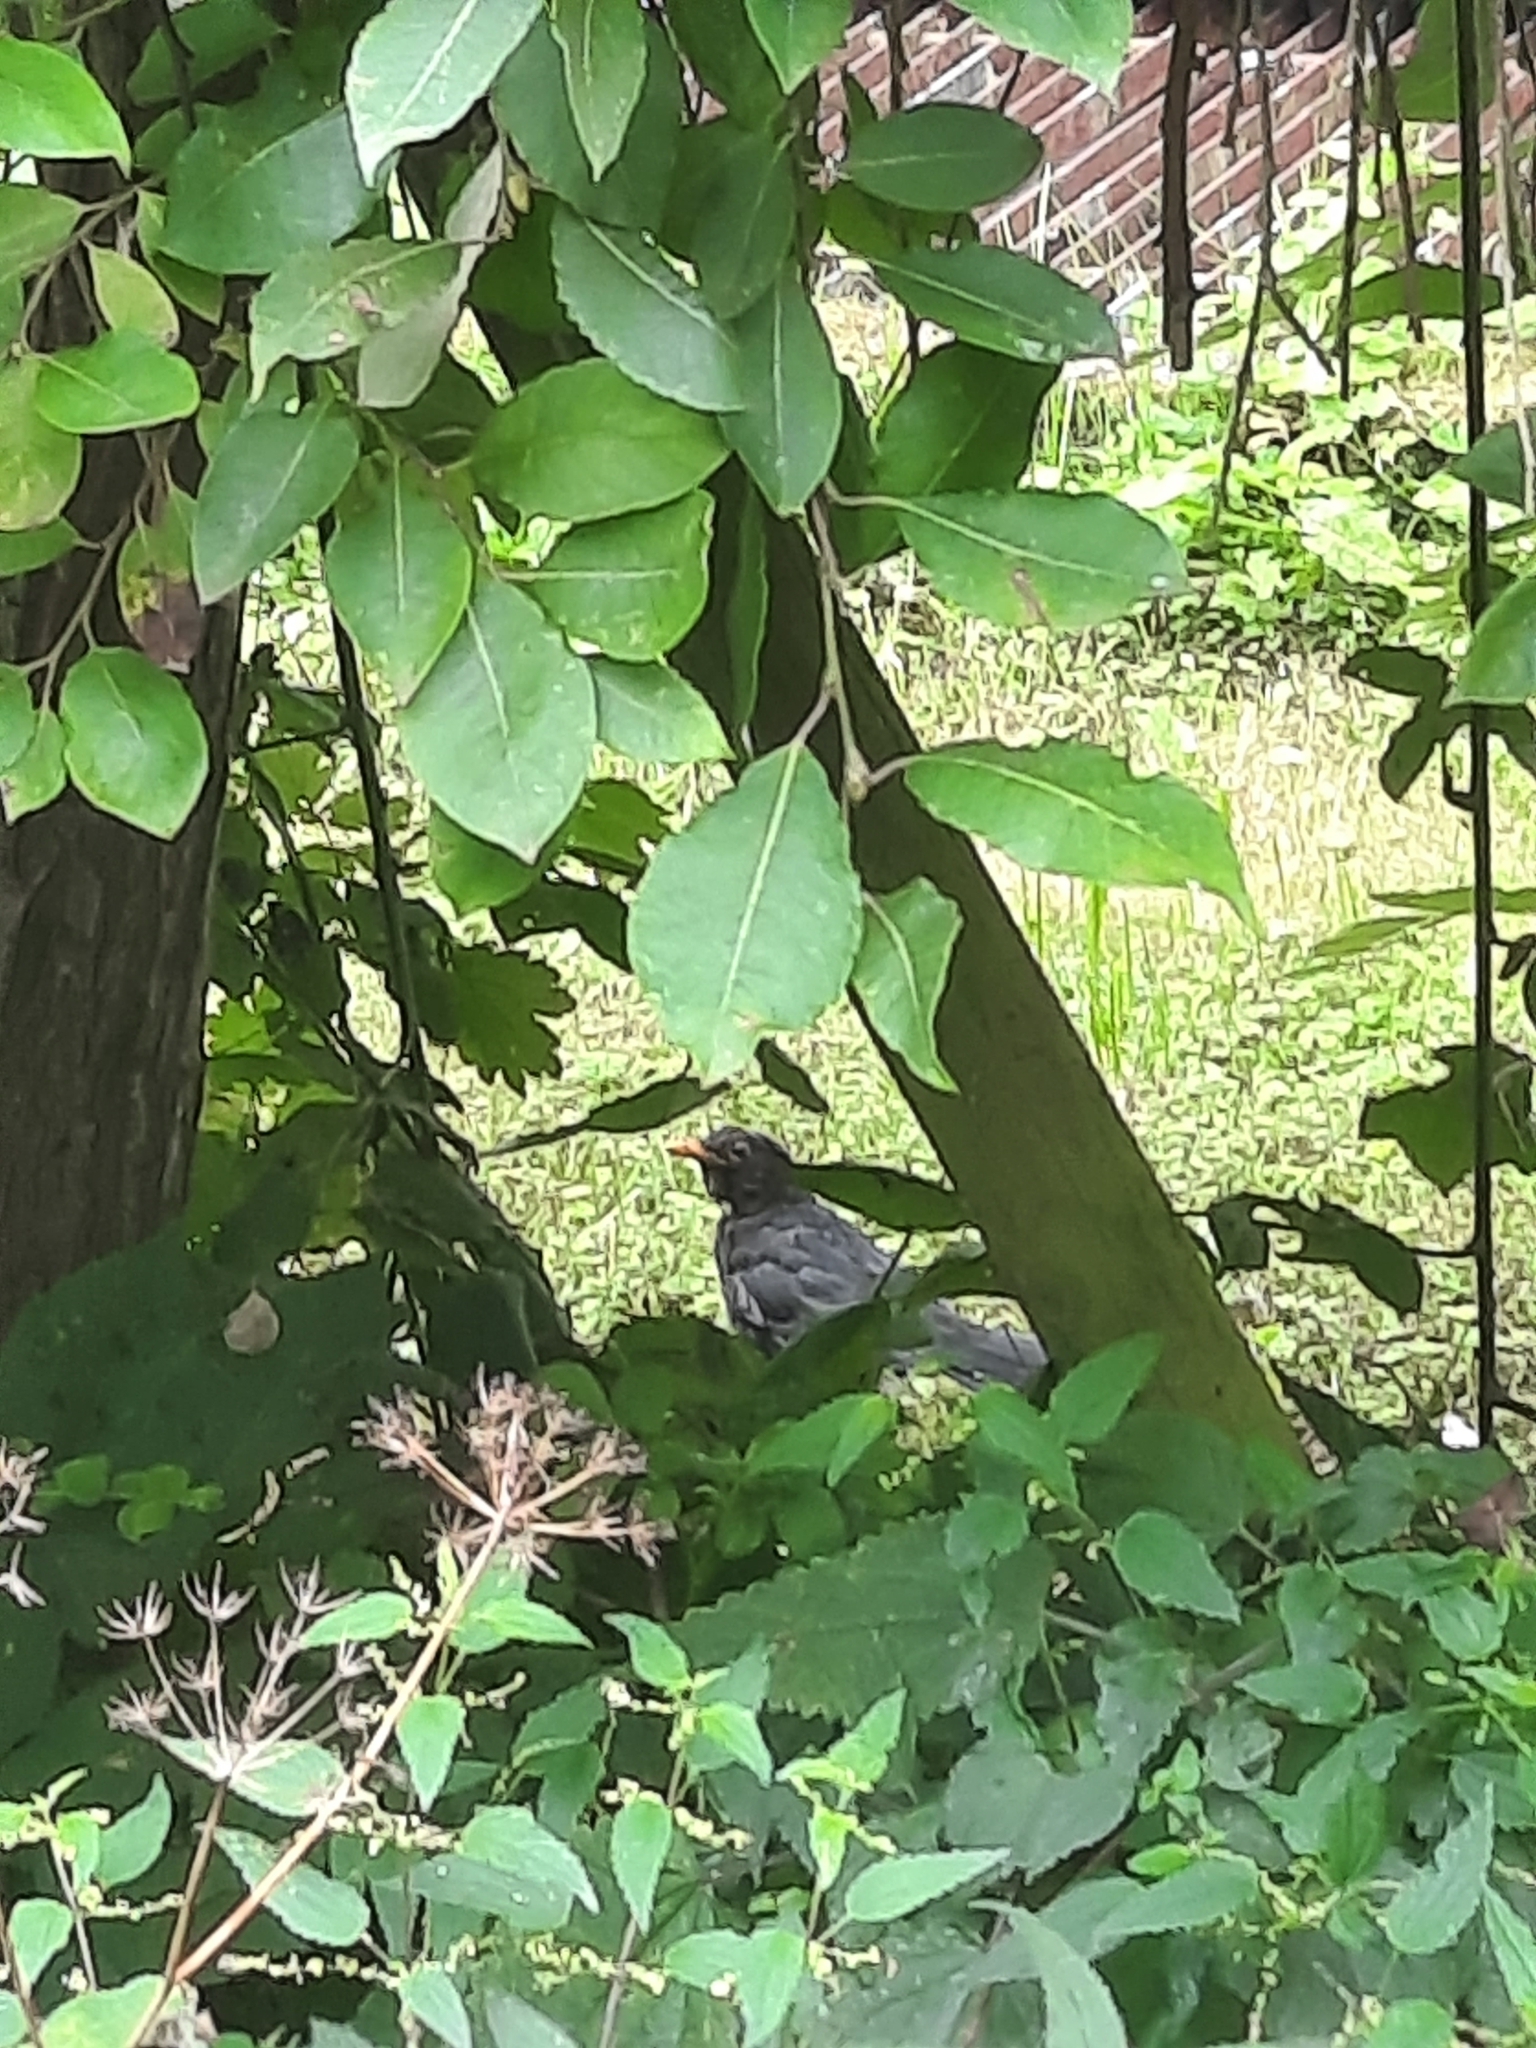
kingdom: Animalia
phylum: Chordata
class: Aves
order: Passeriformes
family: Turdidae
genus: Turdus
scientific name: Turdus merula
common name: Common blackbird
